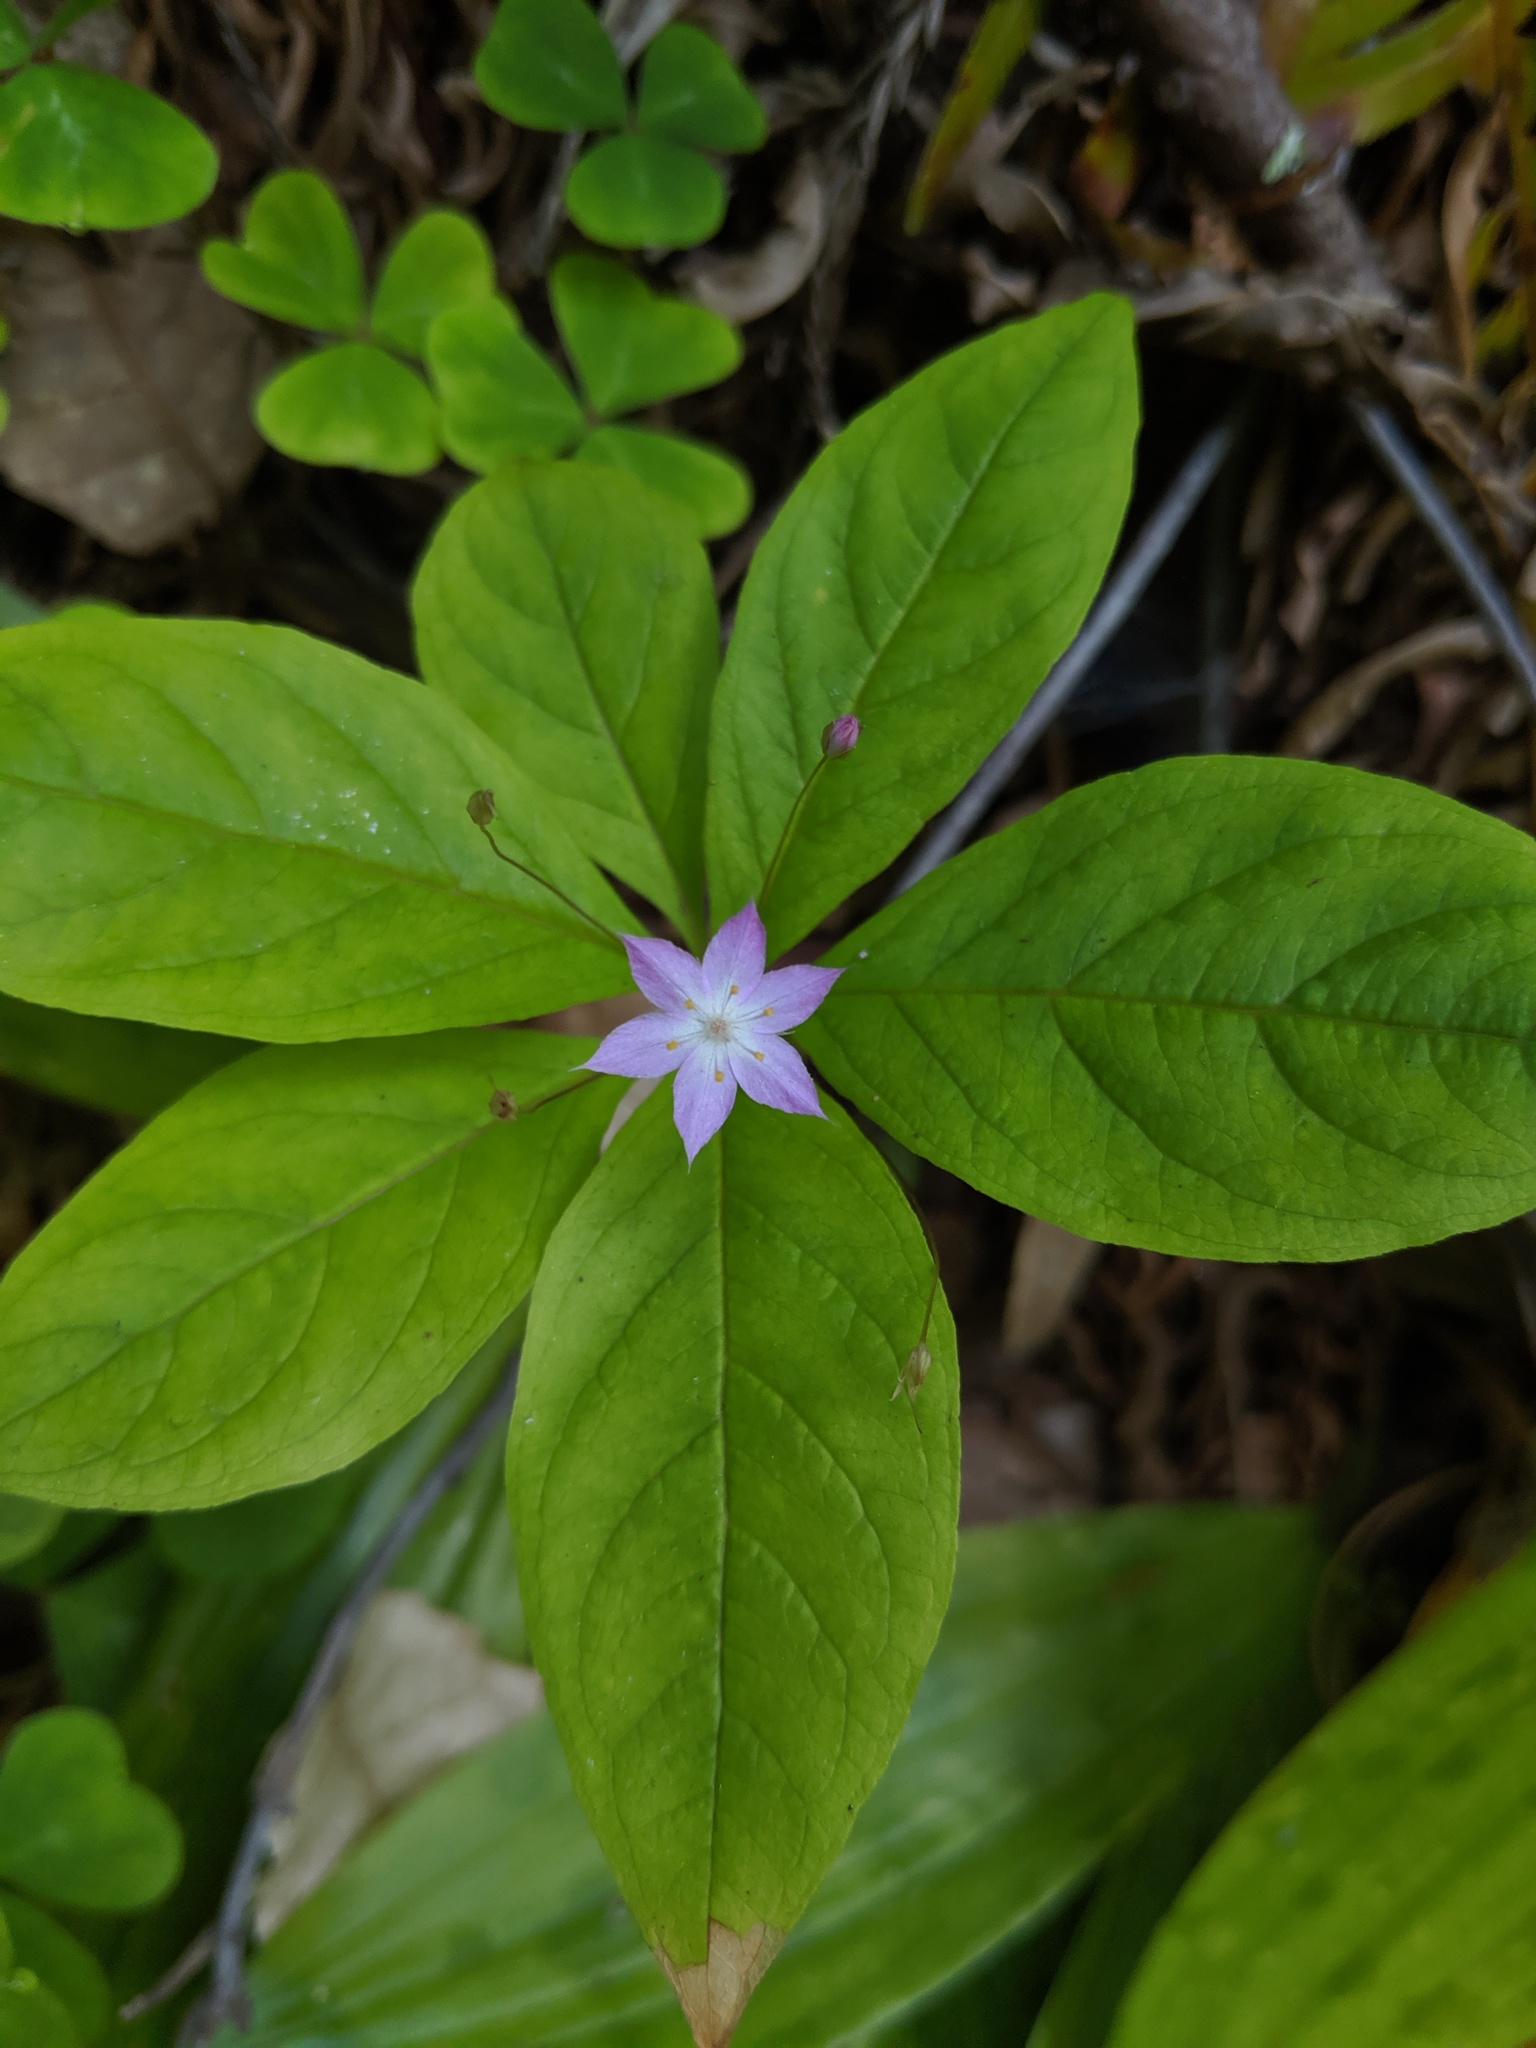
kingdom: Plantae
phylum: Tracheophyta
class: Magnoliopsida
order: Ericales
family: Primulaceae
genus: Lysimachia
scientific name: Lysimachia latifolia
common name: Pacific starflower
